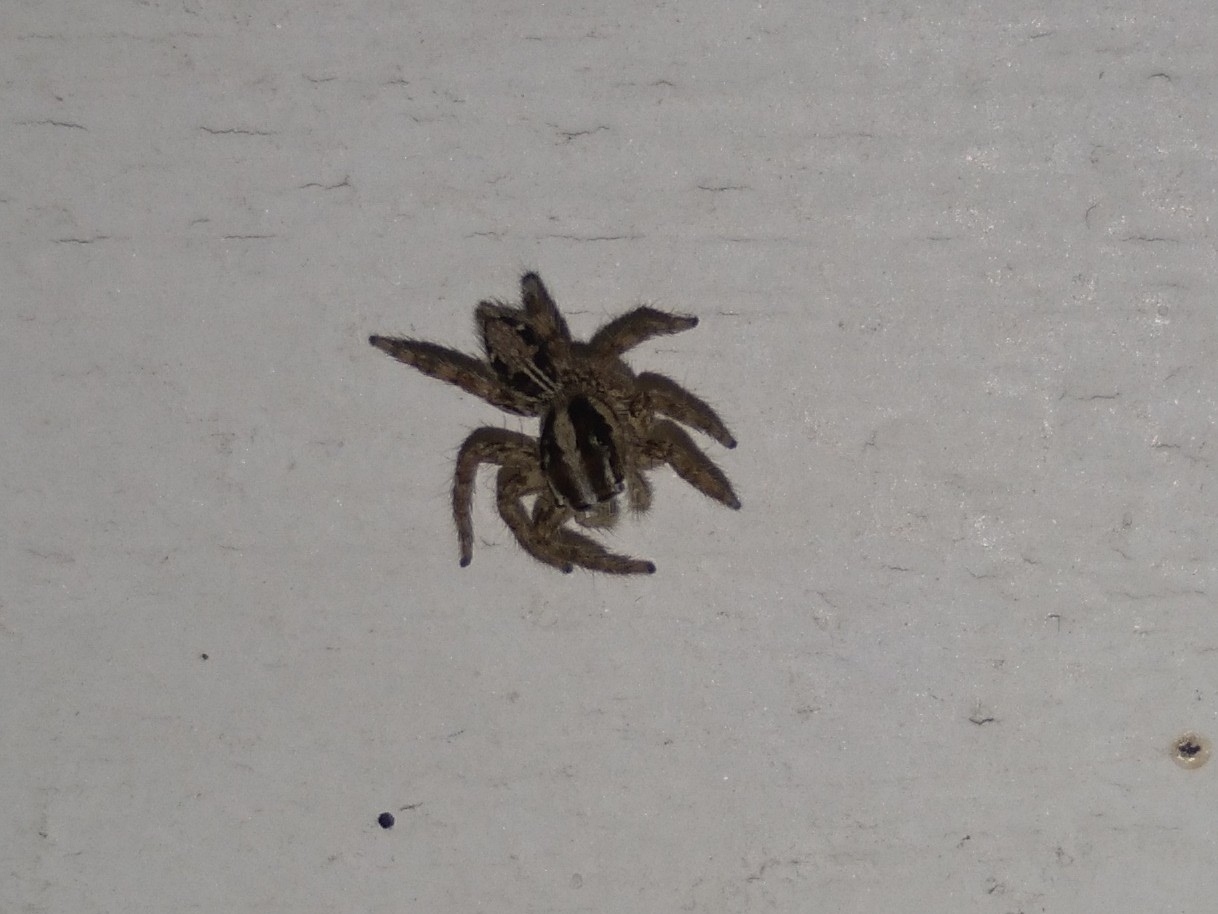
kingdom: Animalia
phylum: Arthropoda
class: Arachnida
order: Araneae
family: Salticidae
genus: Plexippus
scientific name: Plexippus paykulli
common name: Pantropical jumper
